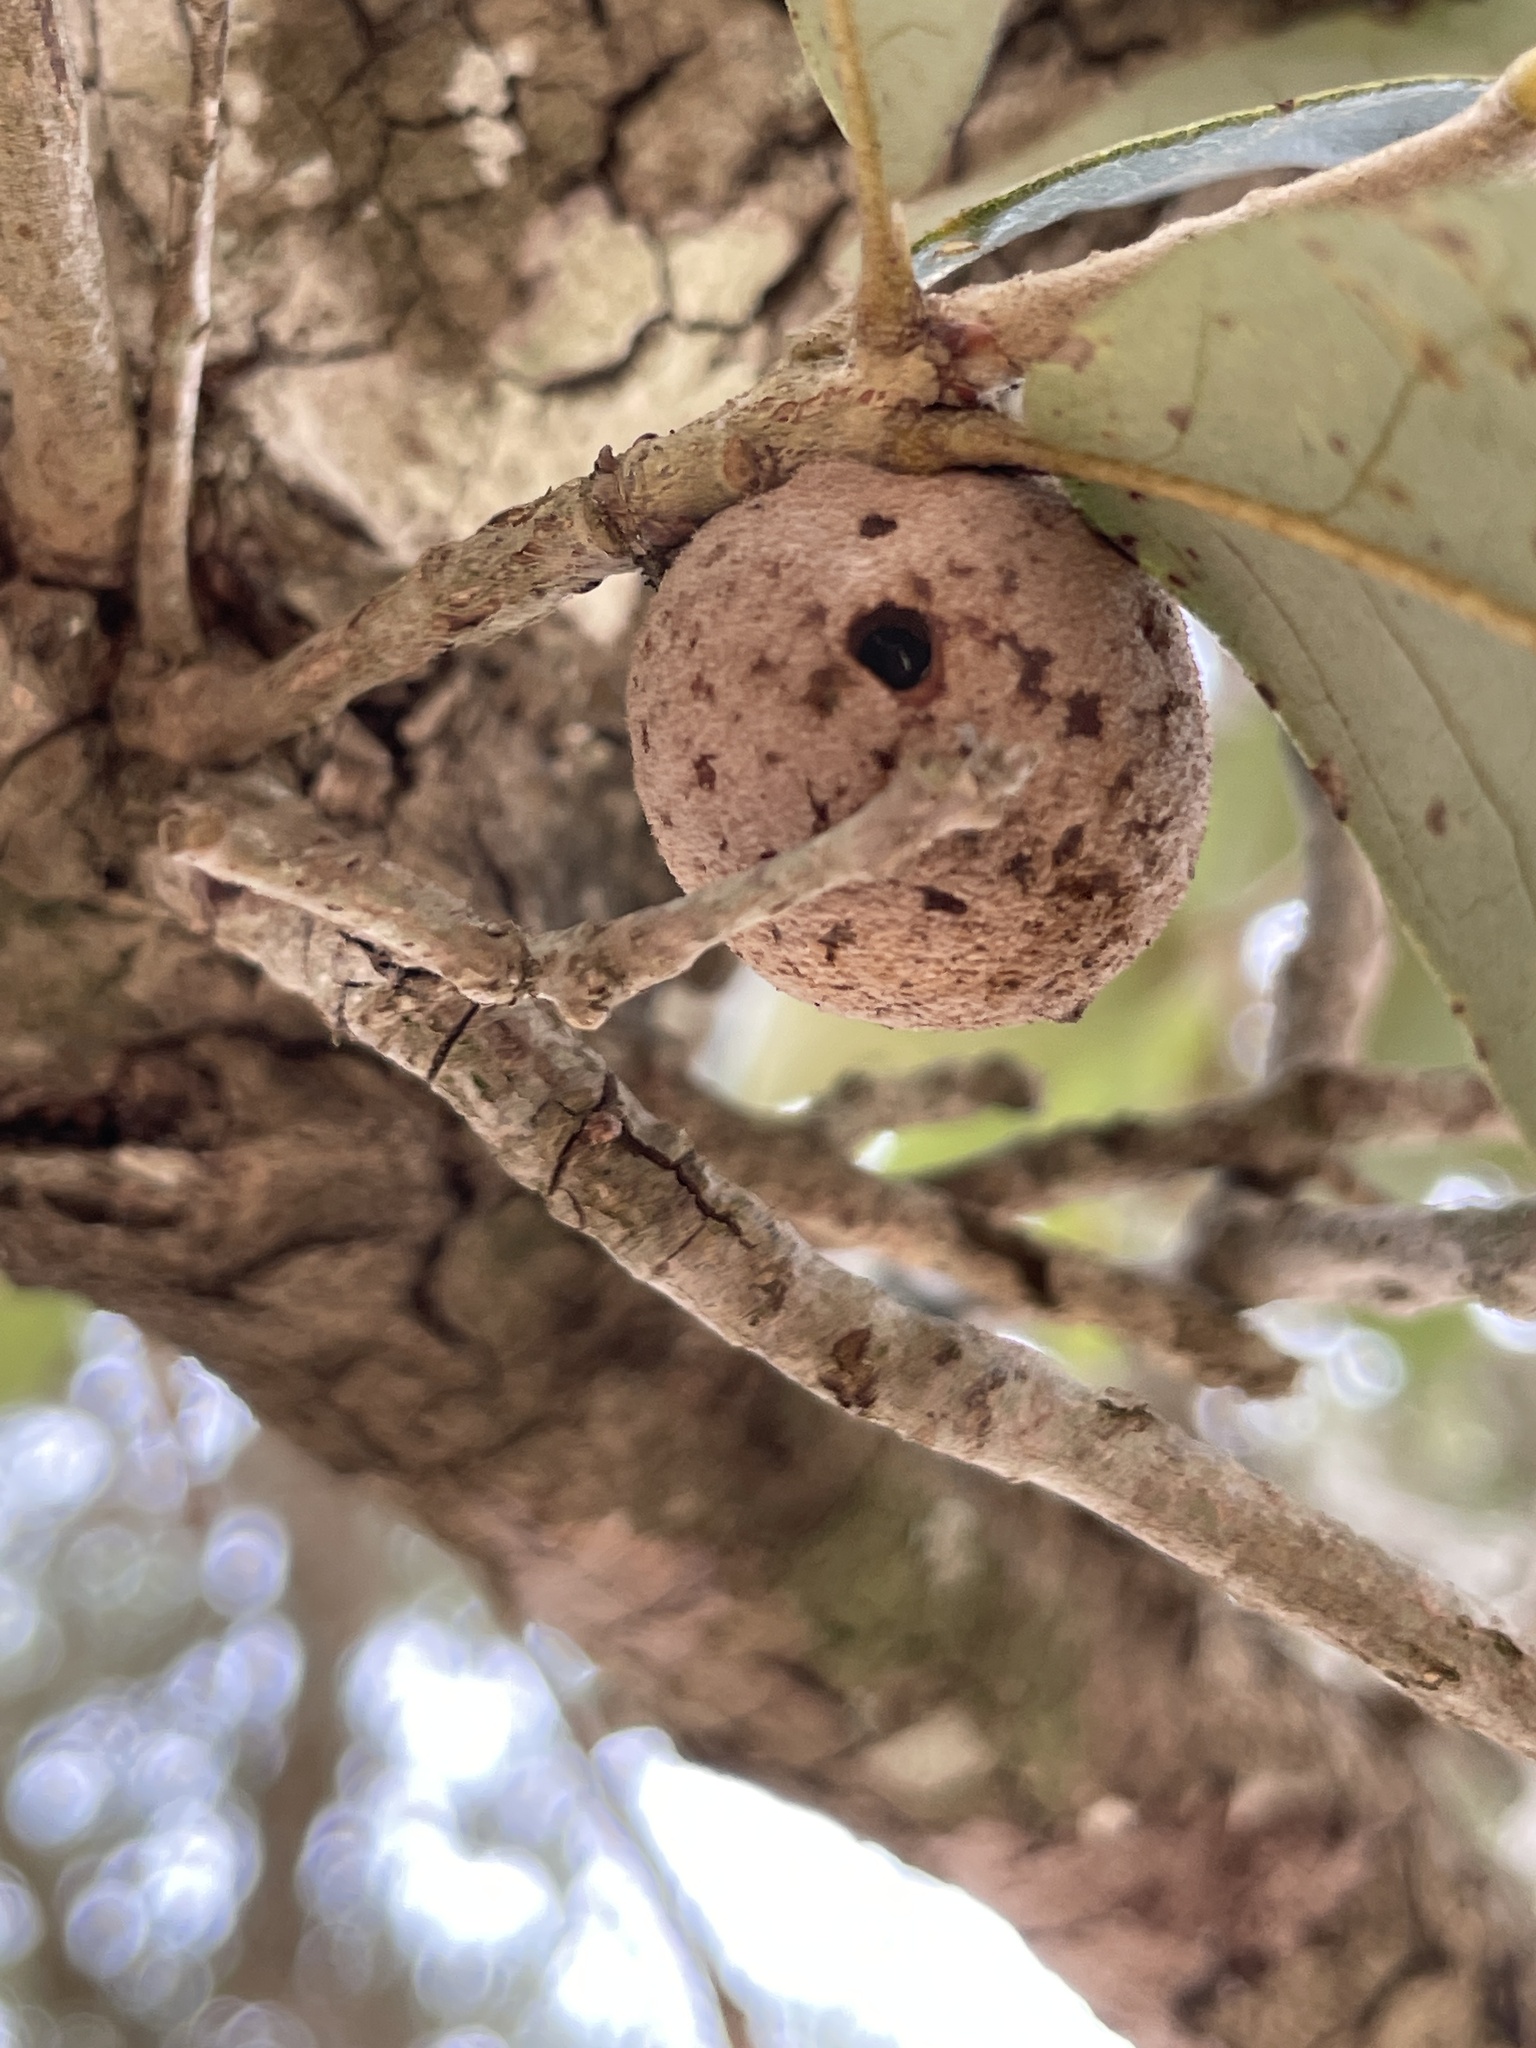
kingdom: Animalia
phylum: Arthropoda
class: Insecta
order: Hymenoptera
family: Cynipidae
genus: Disholcaspis
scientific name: Disholcaspis
